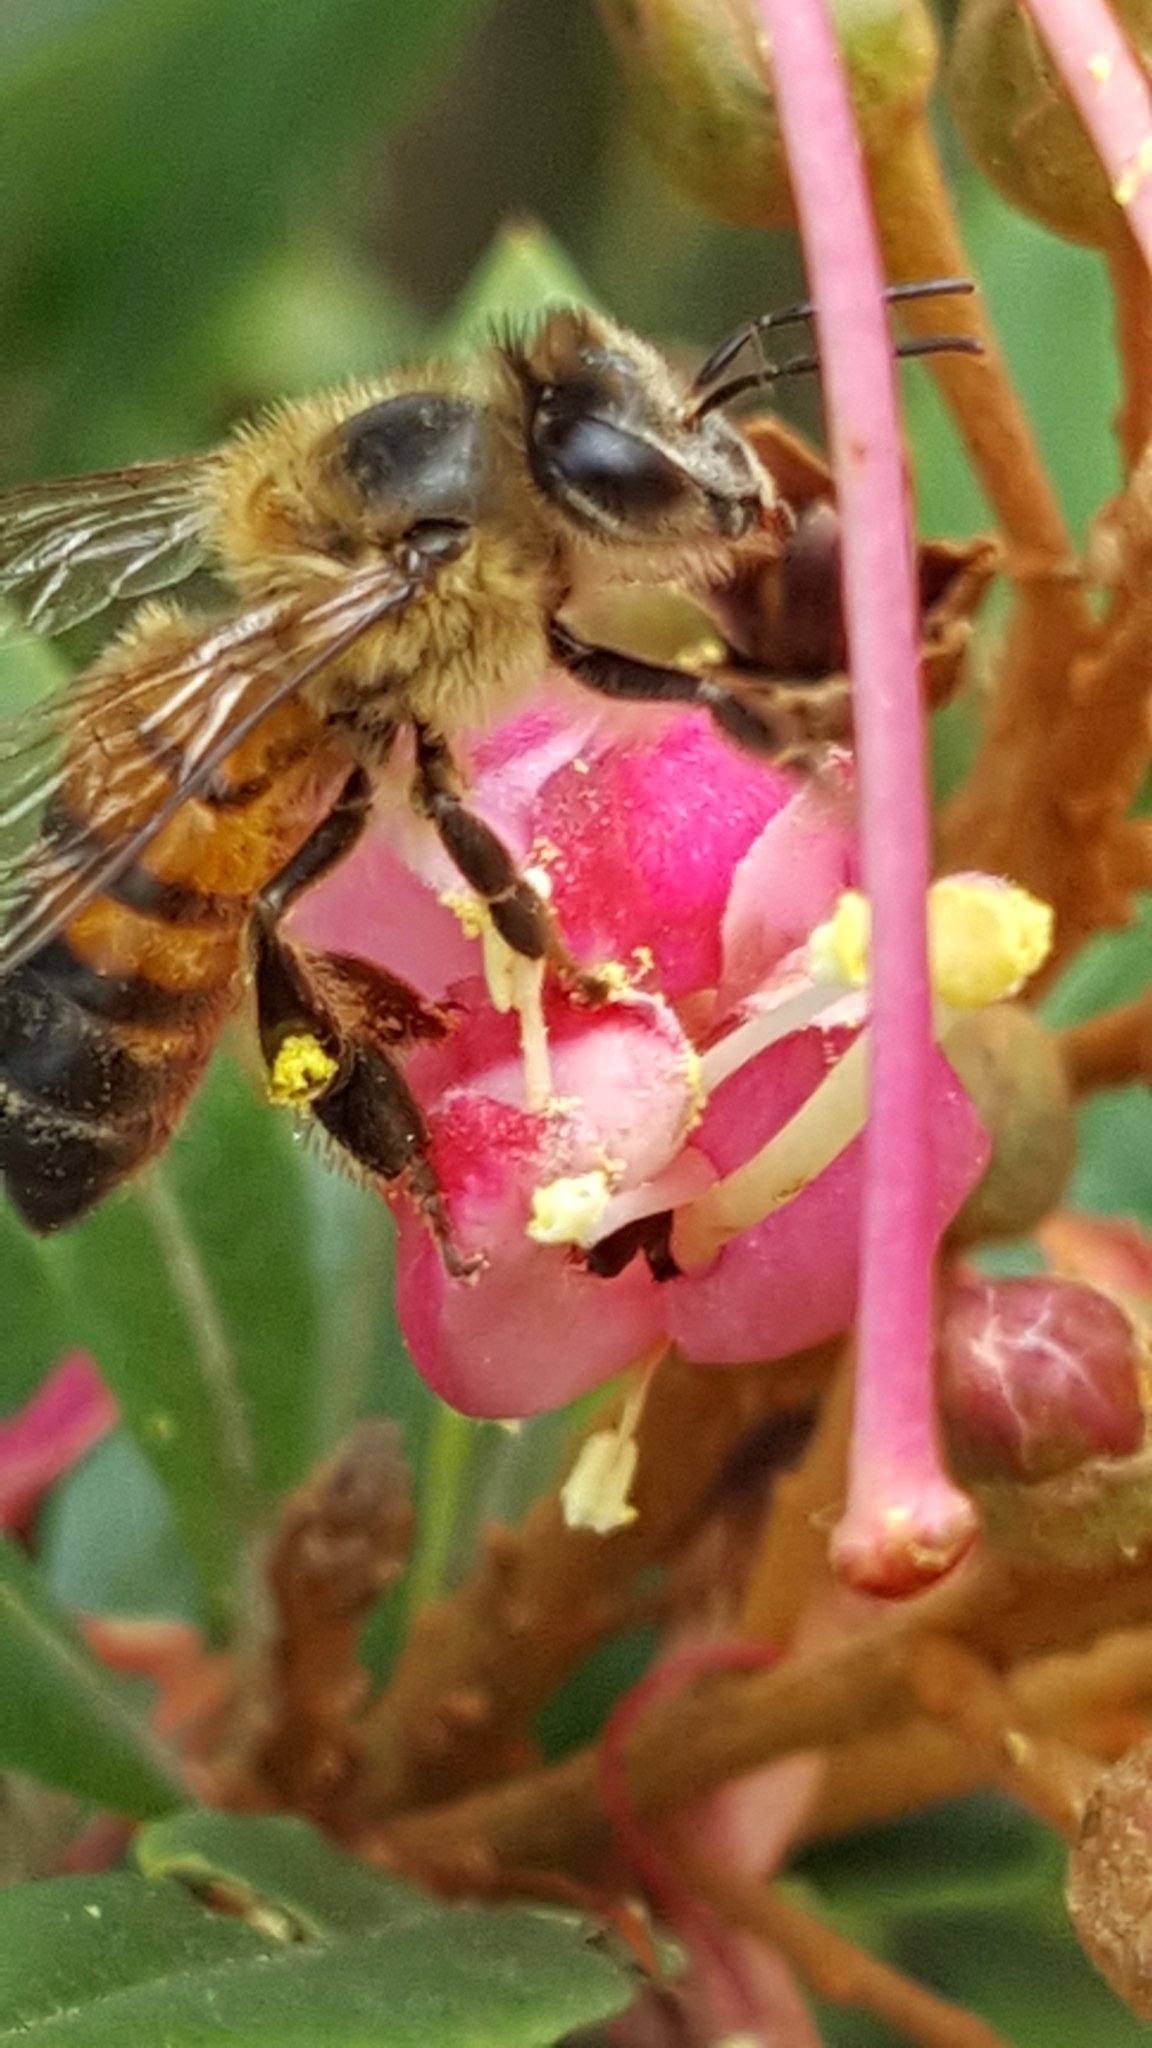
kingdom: Animalia
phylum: Arthropoda
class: Insecta
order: Hymenoptera
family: Apidae
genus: Apis
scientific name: Apis mellifera
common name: Honey bee
